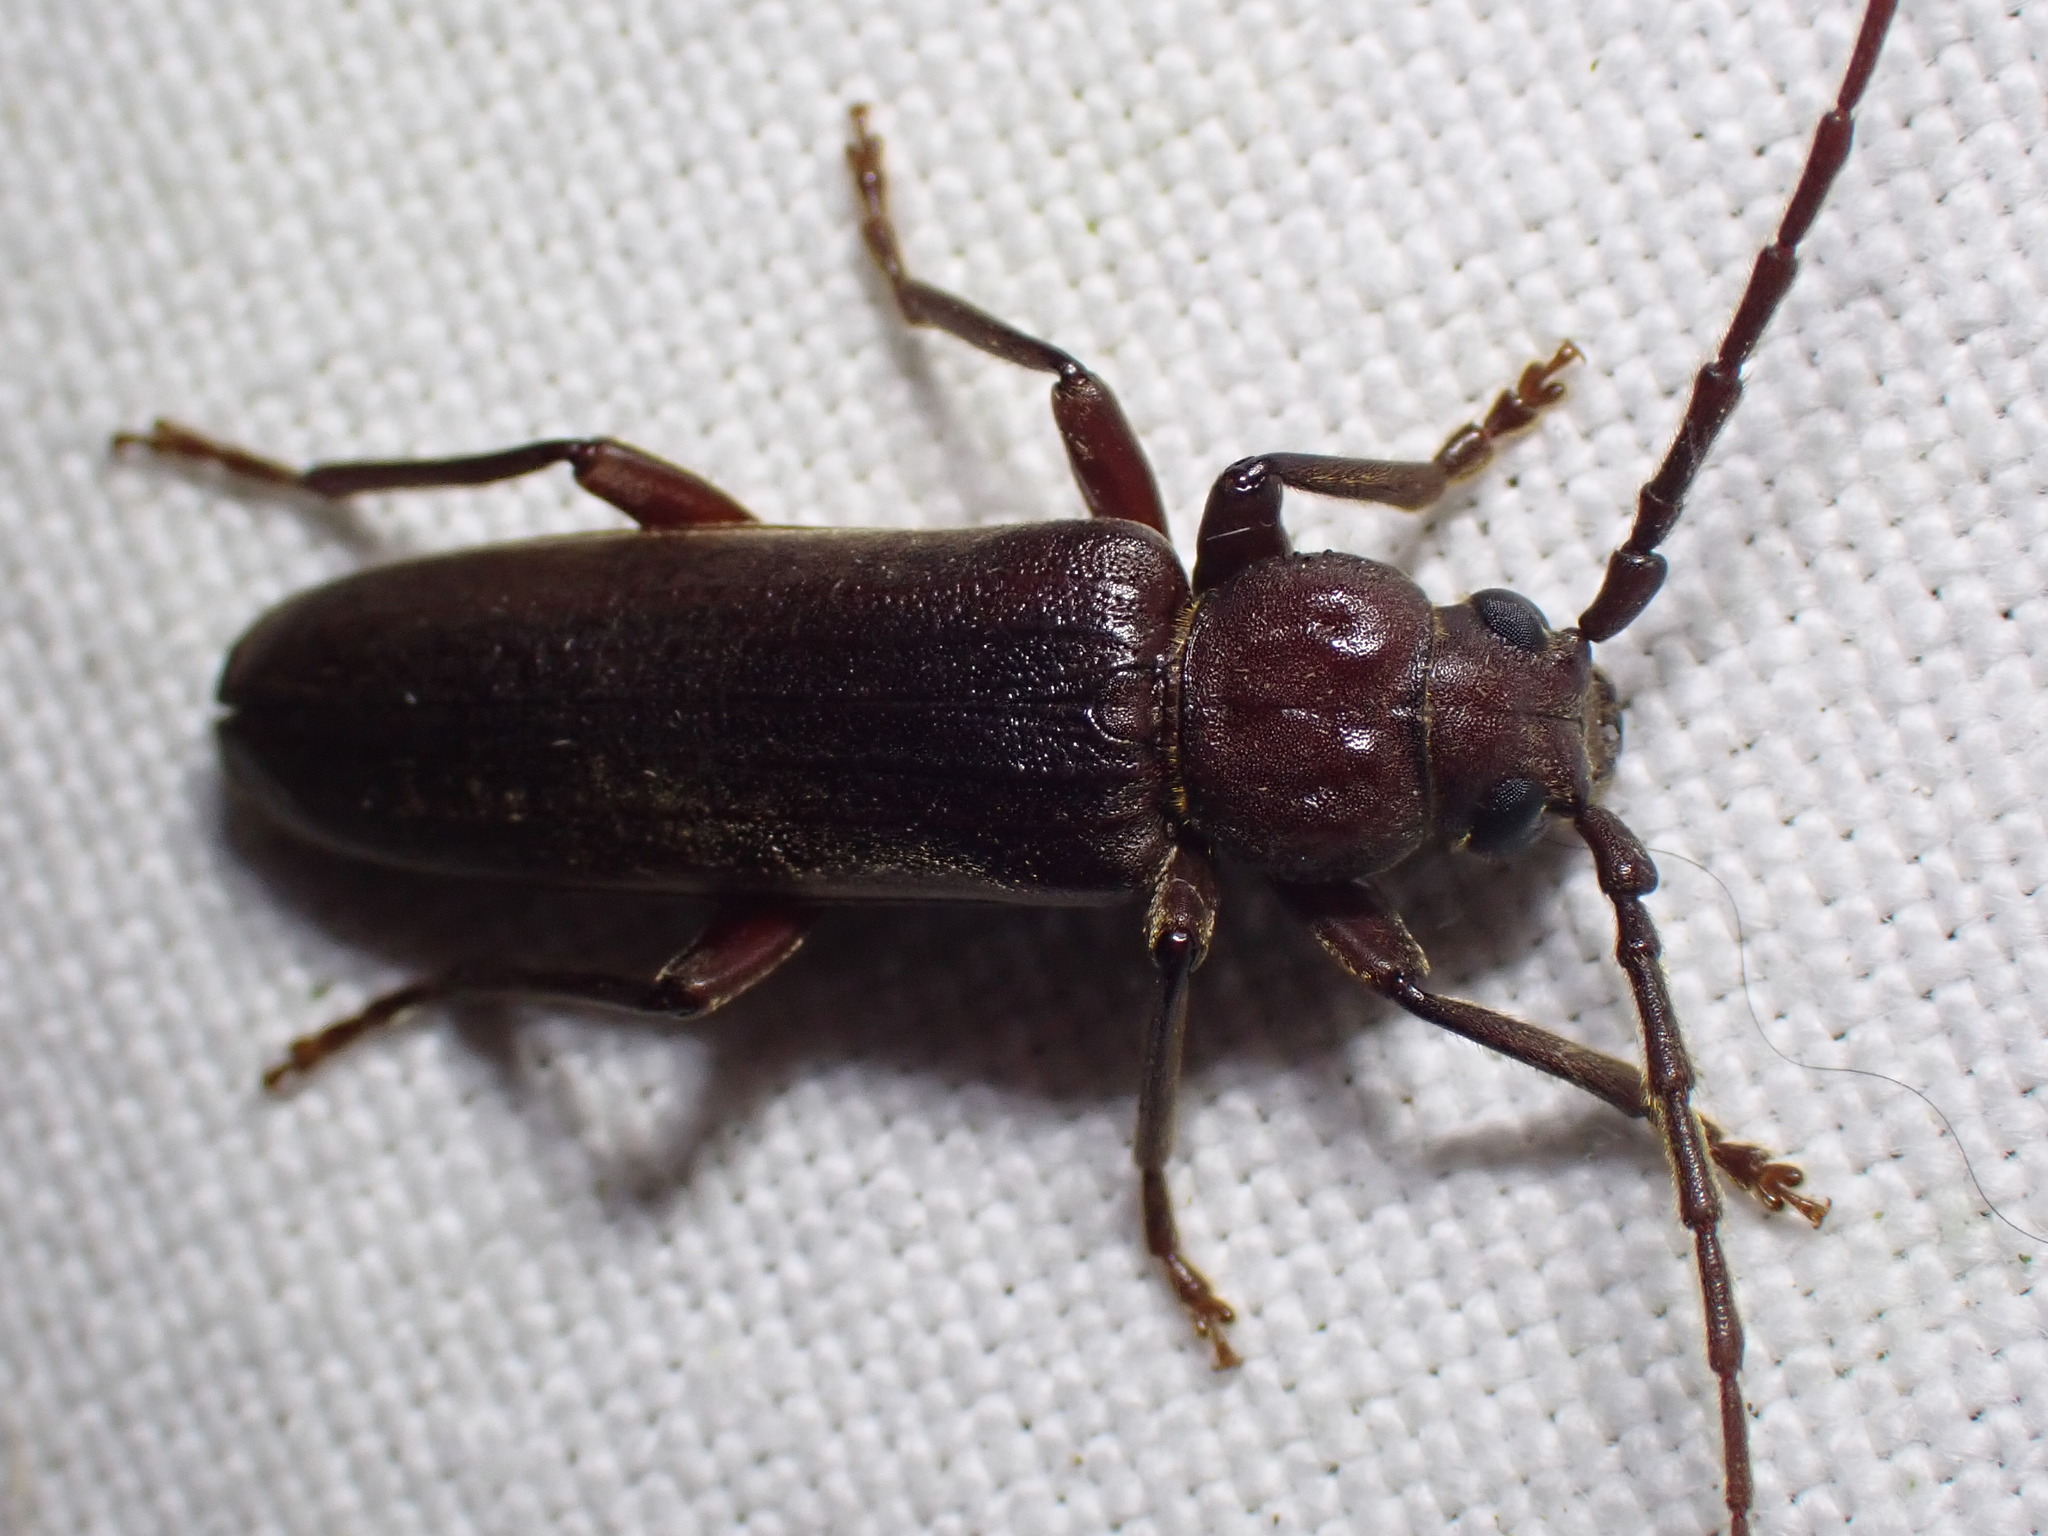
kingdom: Animalia
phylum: Arthropoda
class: Insecta
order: Coleoptera
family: Cerambycidae
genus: Arhopalus
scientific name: Arhopalus rusticus
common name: Rust pine borer
